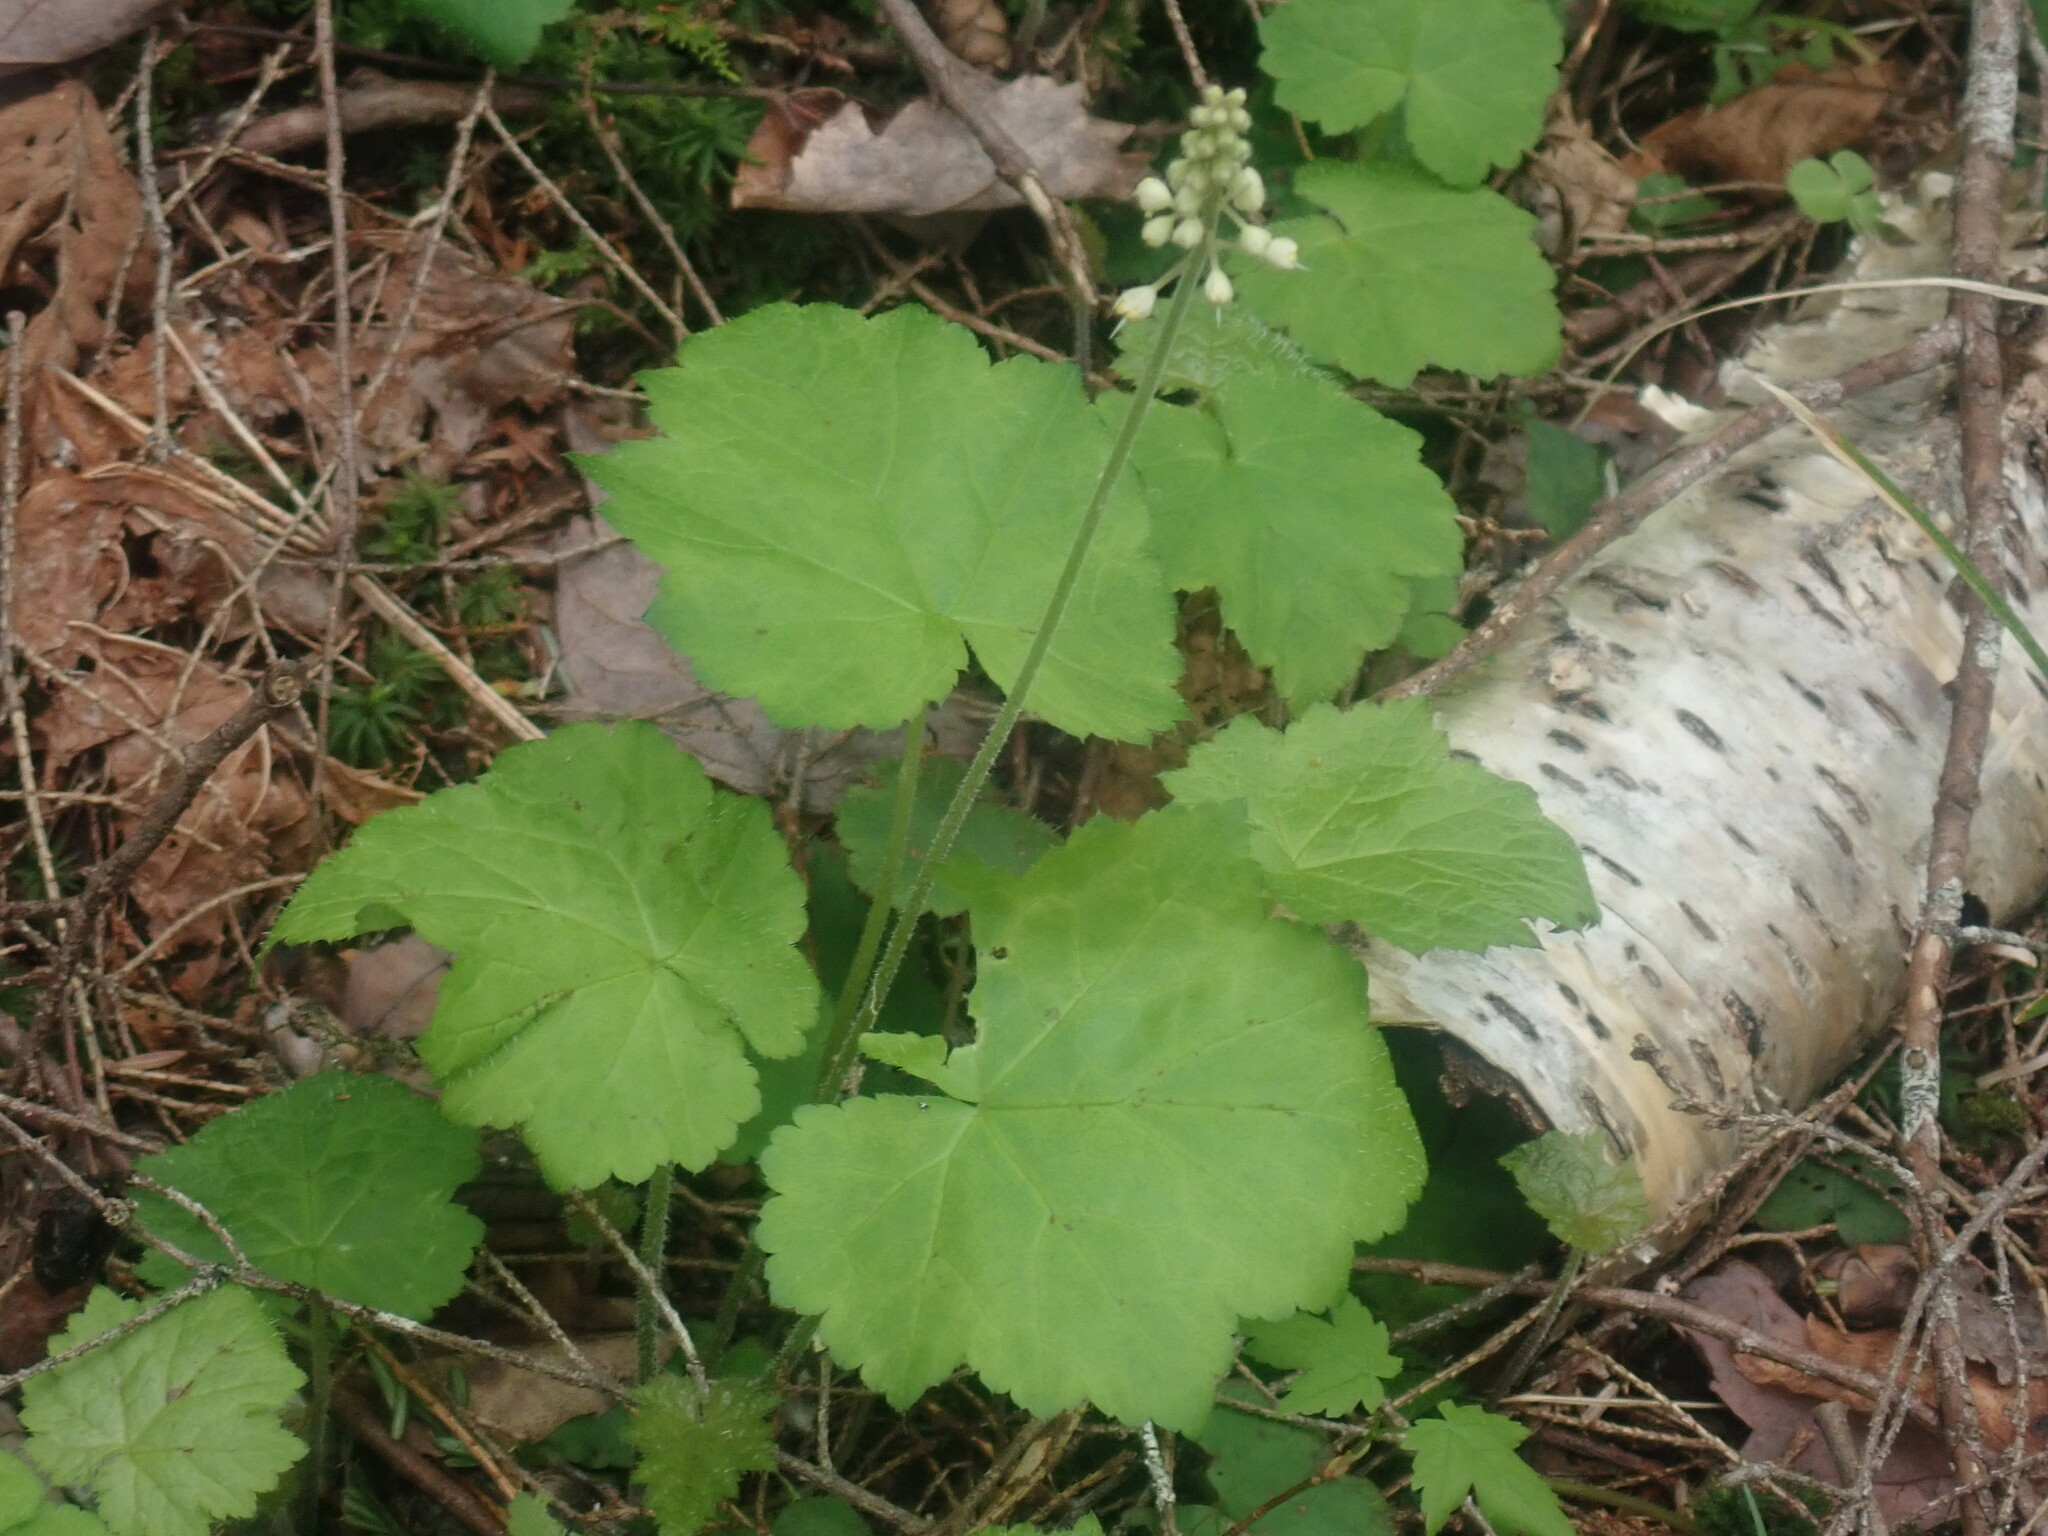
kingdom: Plantae
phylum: Tracheophyta
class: Magnoliopsida
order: Saxifragales
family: Saxifragaceae
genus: Tiarella
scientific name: Tiarella stolonifera
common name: Stoloniferous foamflower
